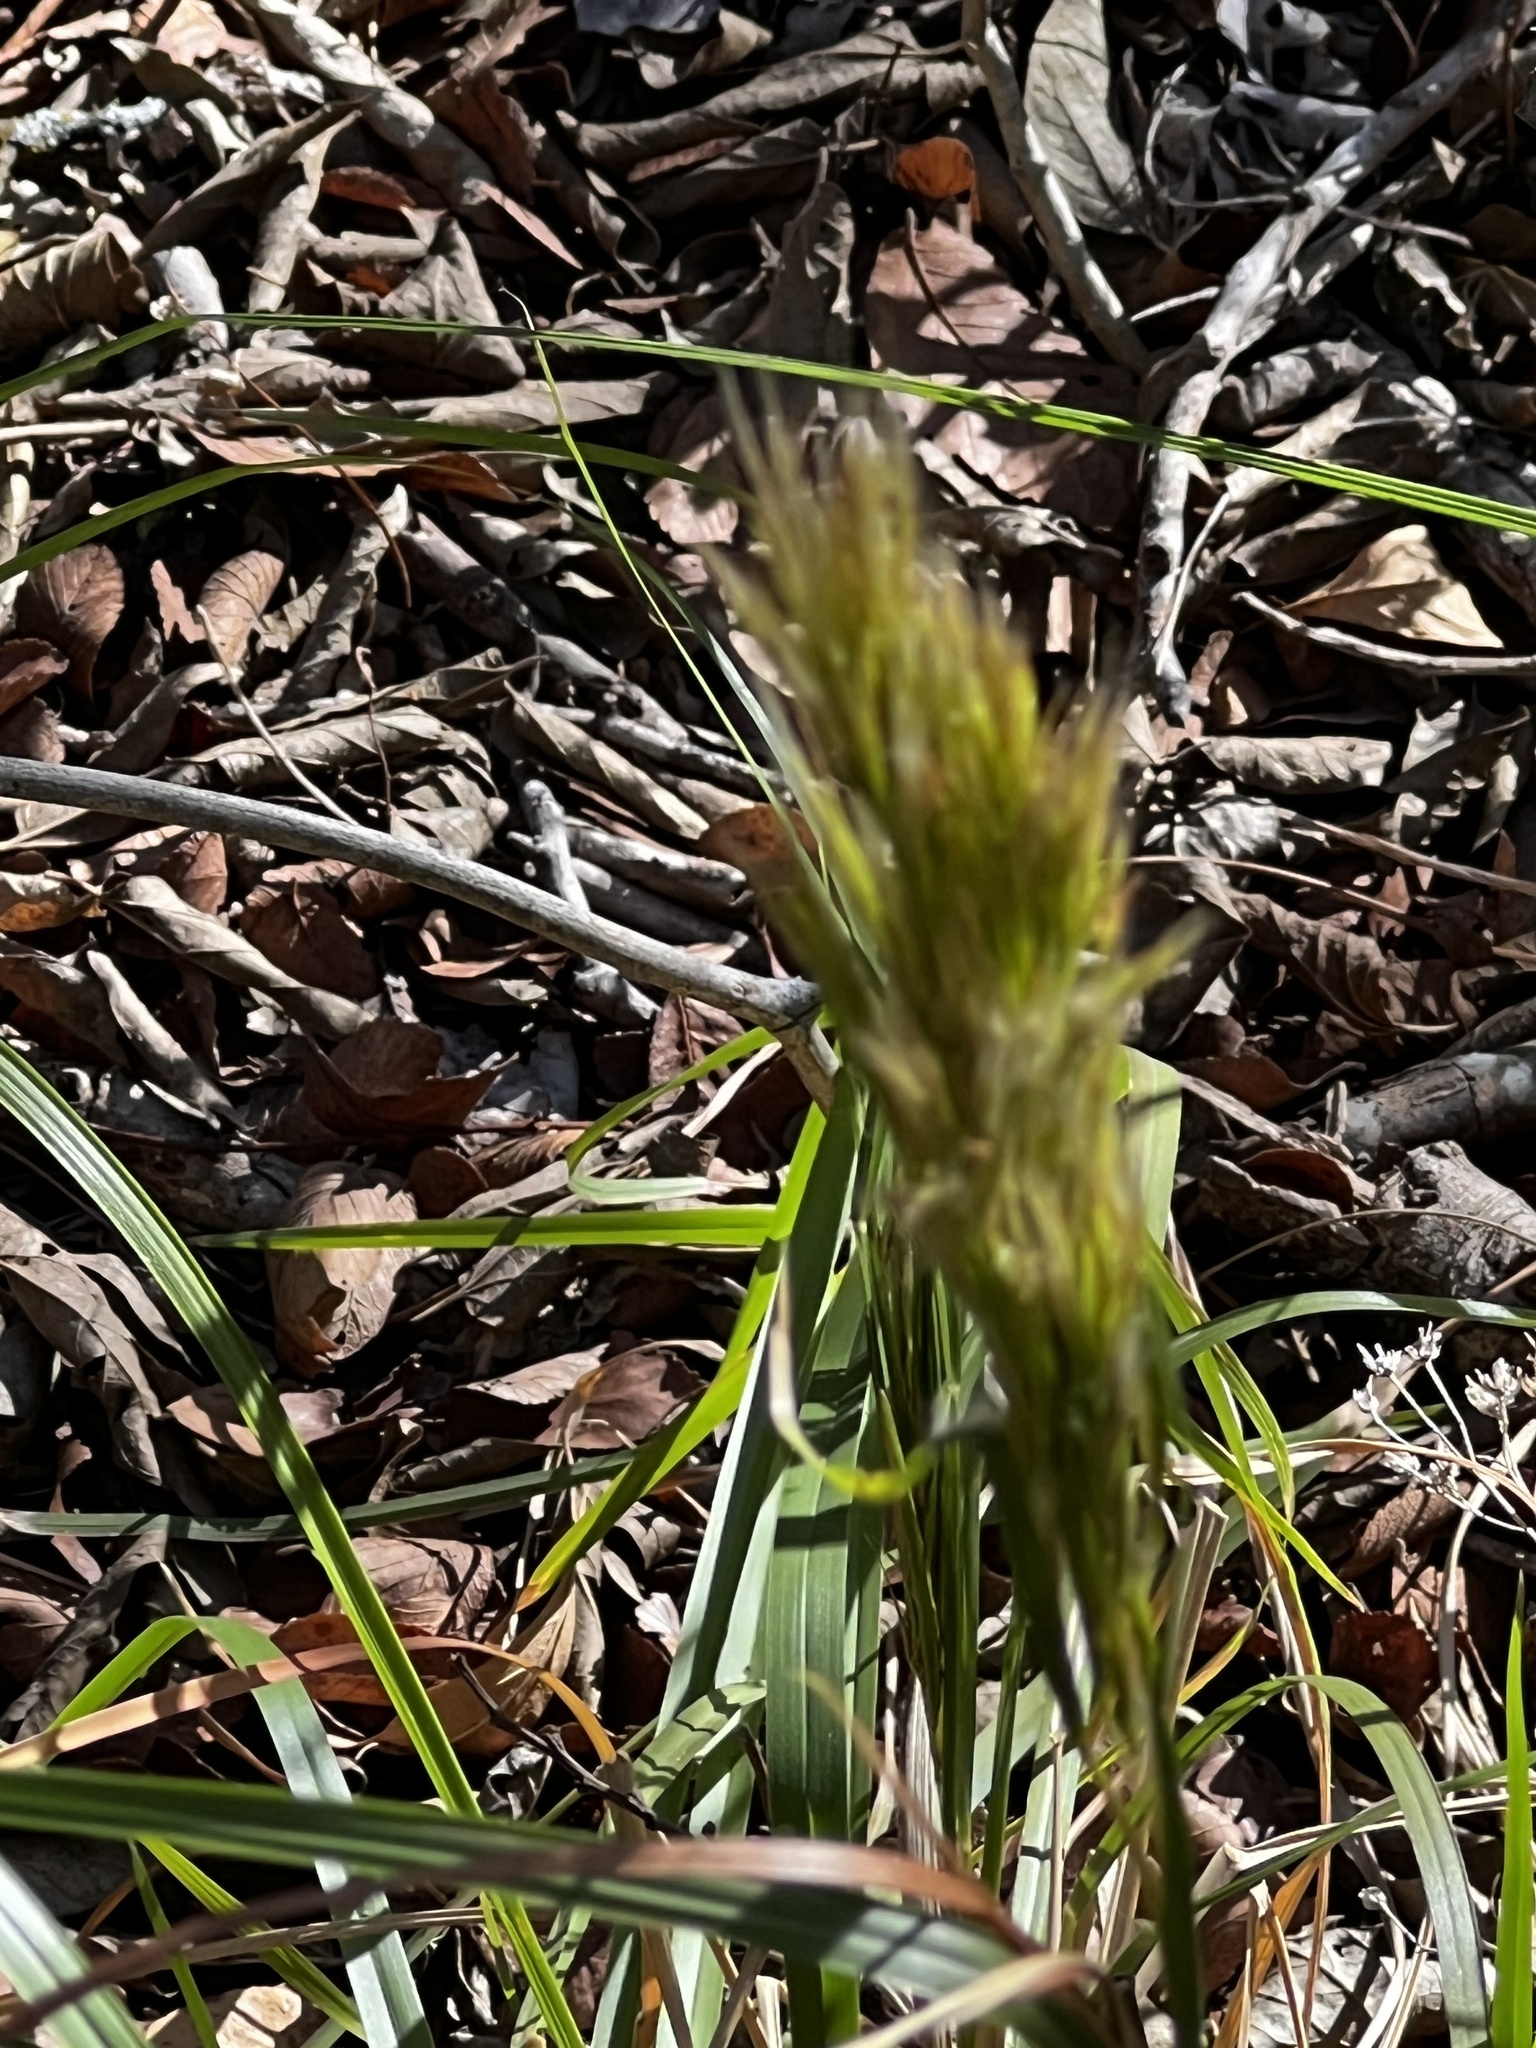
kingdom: Plantae
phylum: Tracheophyta
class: Liliopsida
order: Poales
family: Poaceae
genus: Andropogon
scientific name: Andropogon tenuispatheus
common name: Bushy bluestem
